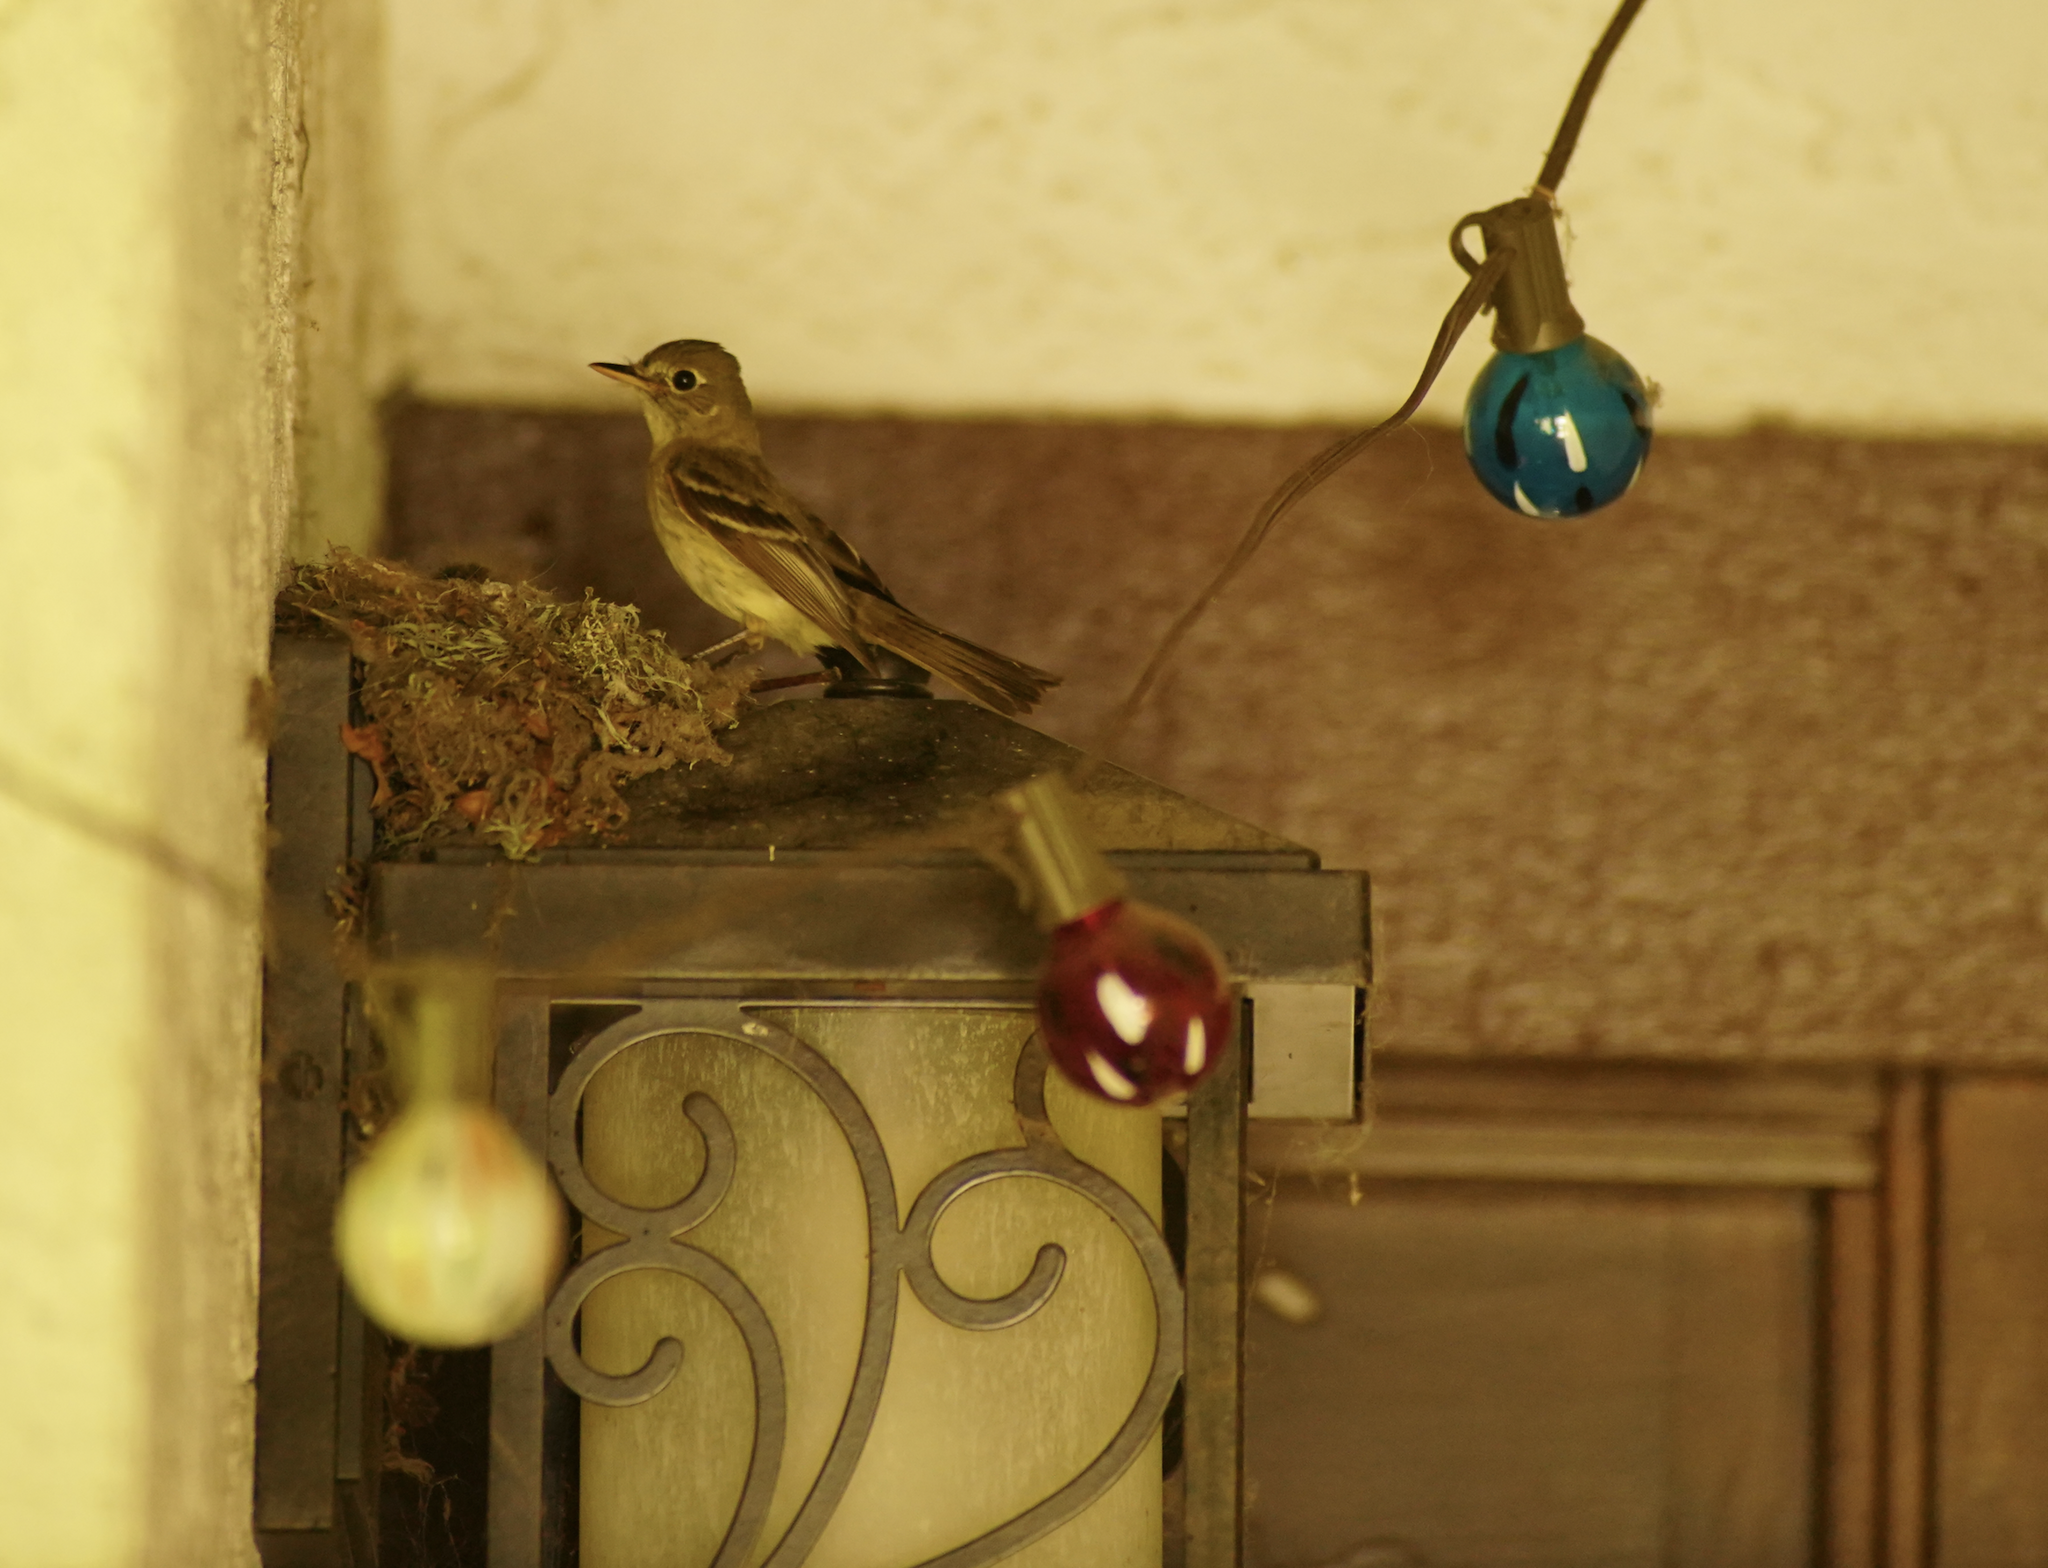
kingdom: Animalia
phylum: Chordata
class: Aves
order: Passeriformes
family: Tyrannidae
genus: Empidonax
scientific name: Empidonax difficilis
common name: Pacific-slope flycatcher
